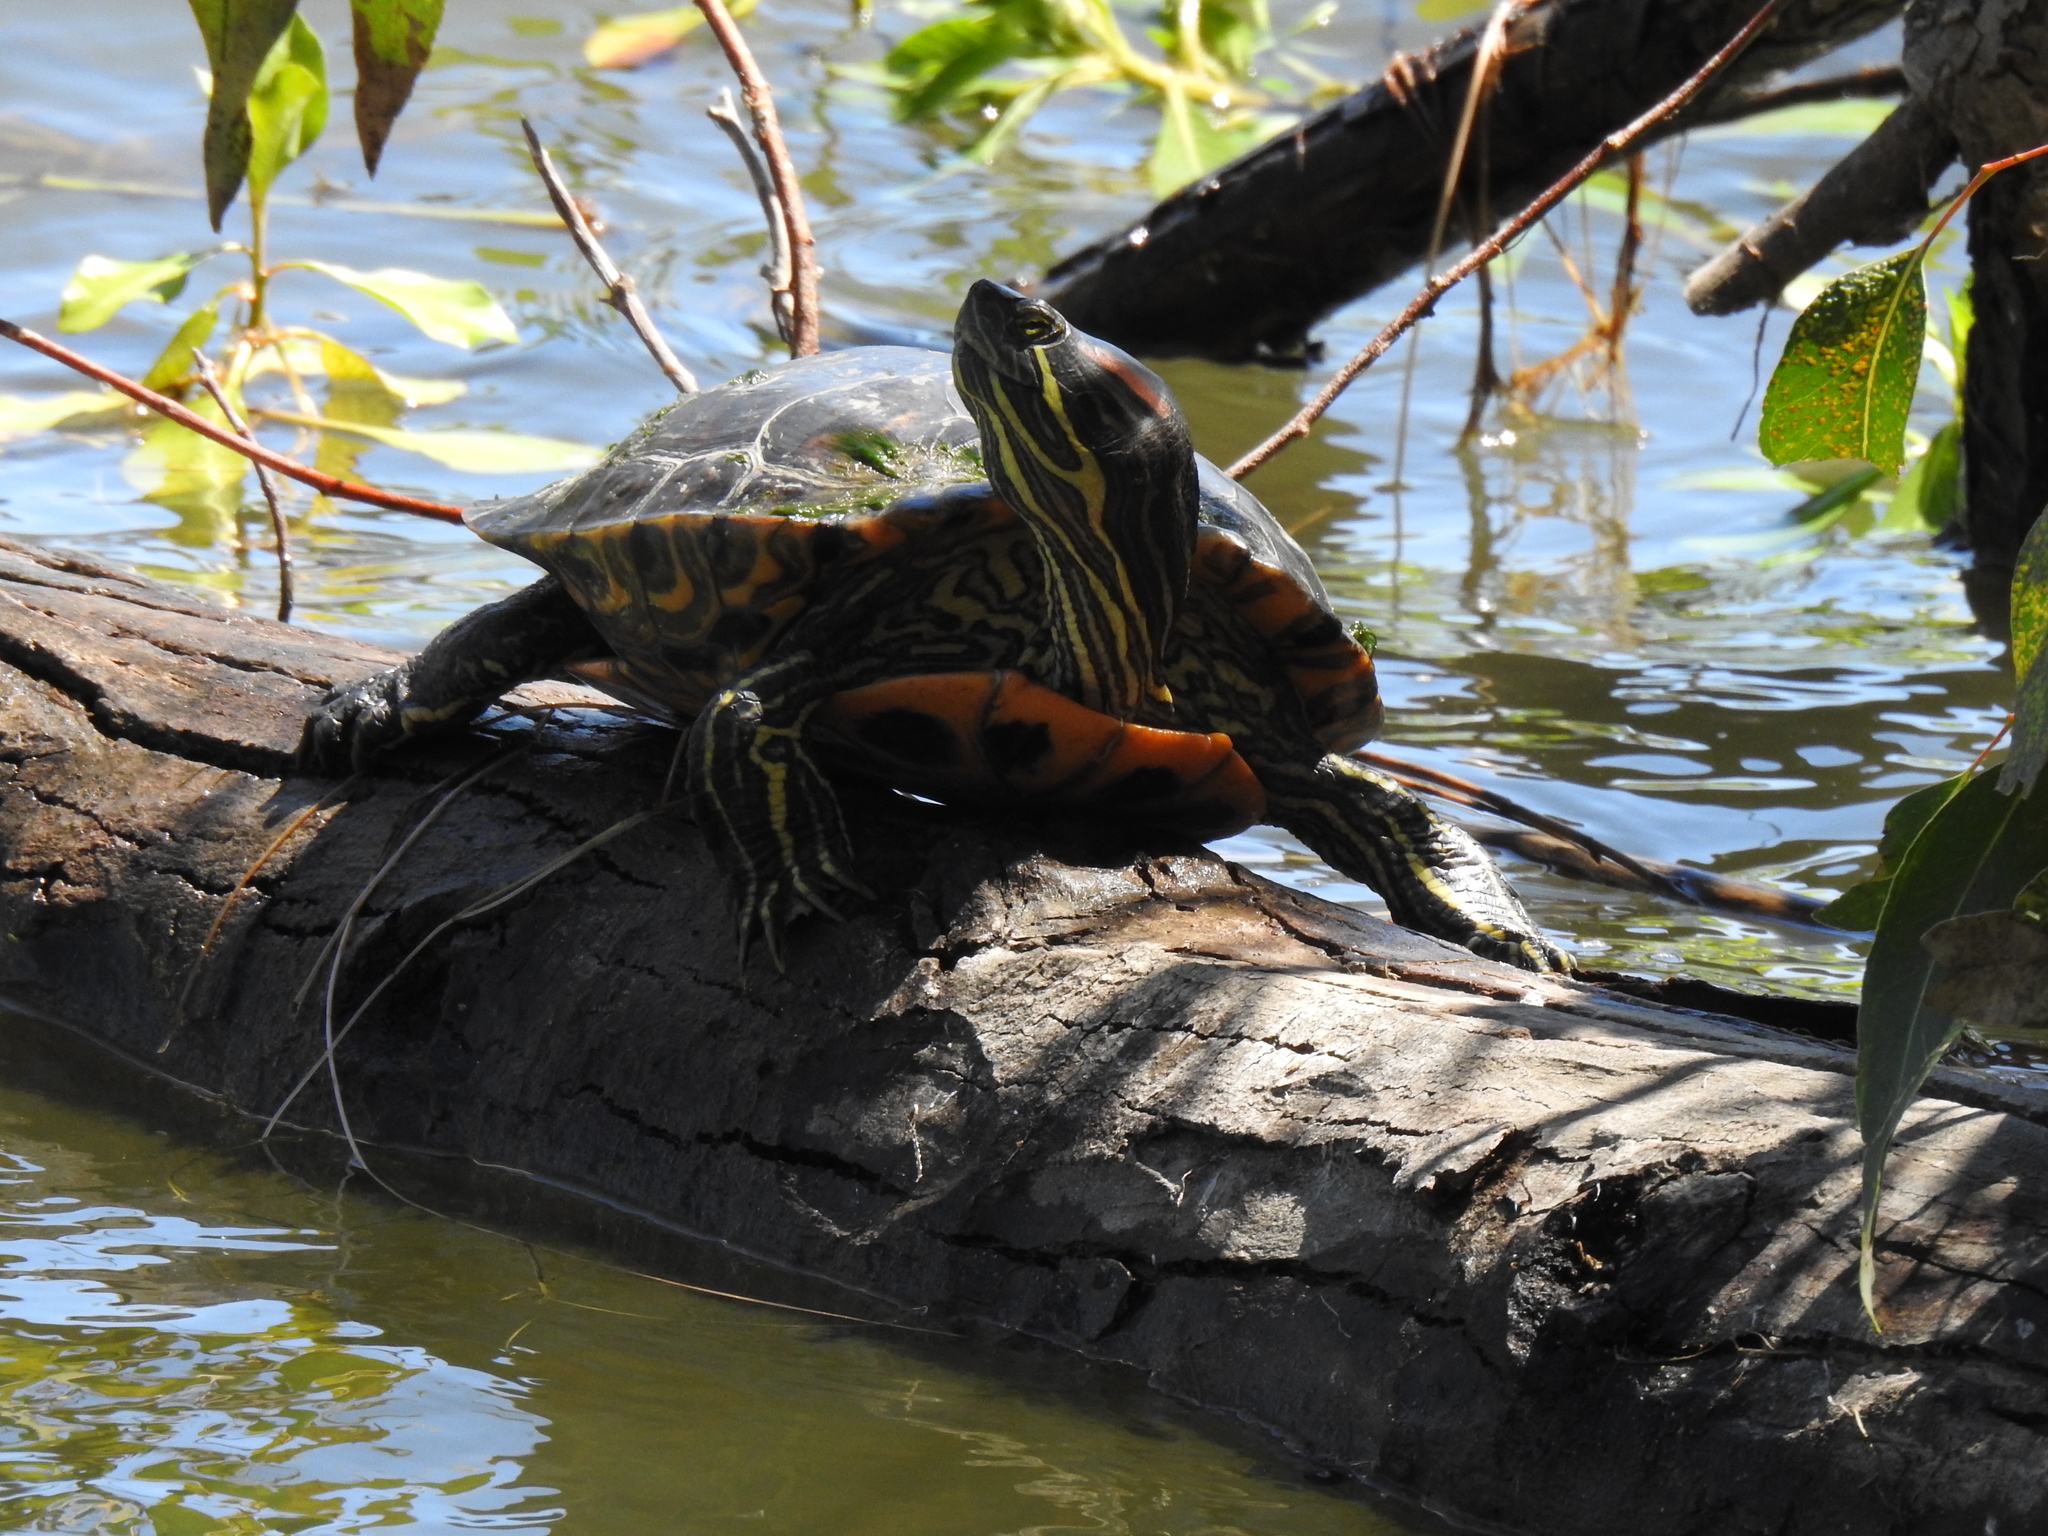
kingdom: Animalia
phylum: Chordata
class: Testudines
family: Emydidae
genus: Trachemys
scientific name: Trachemys scripta
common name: Slider
